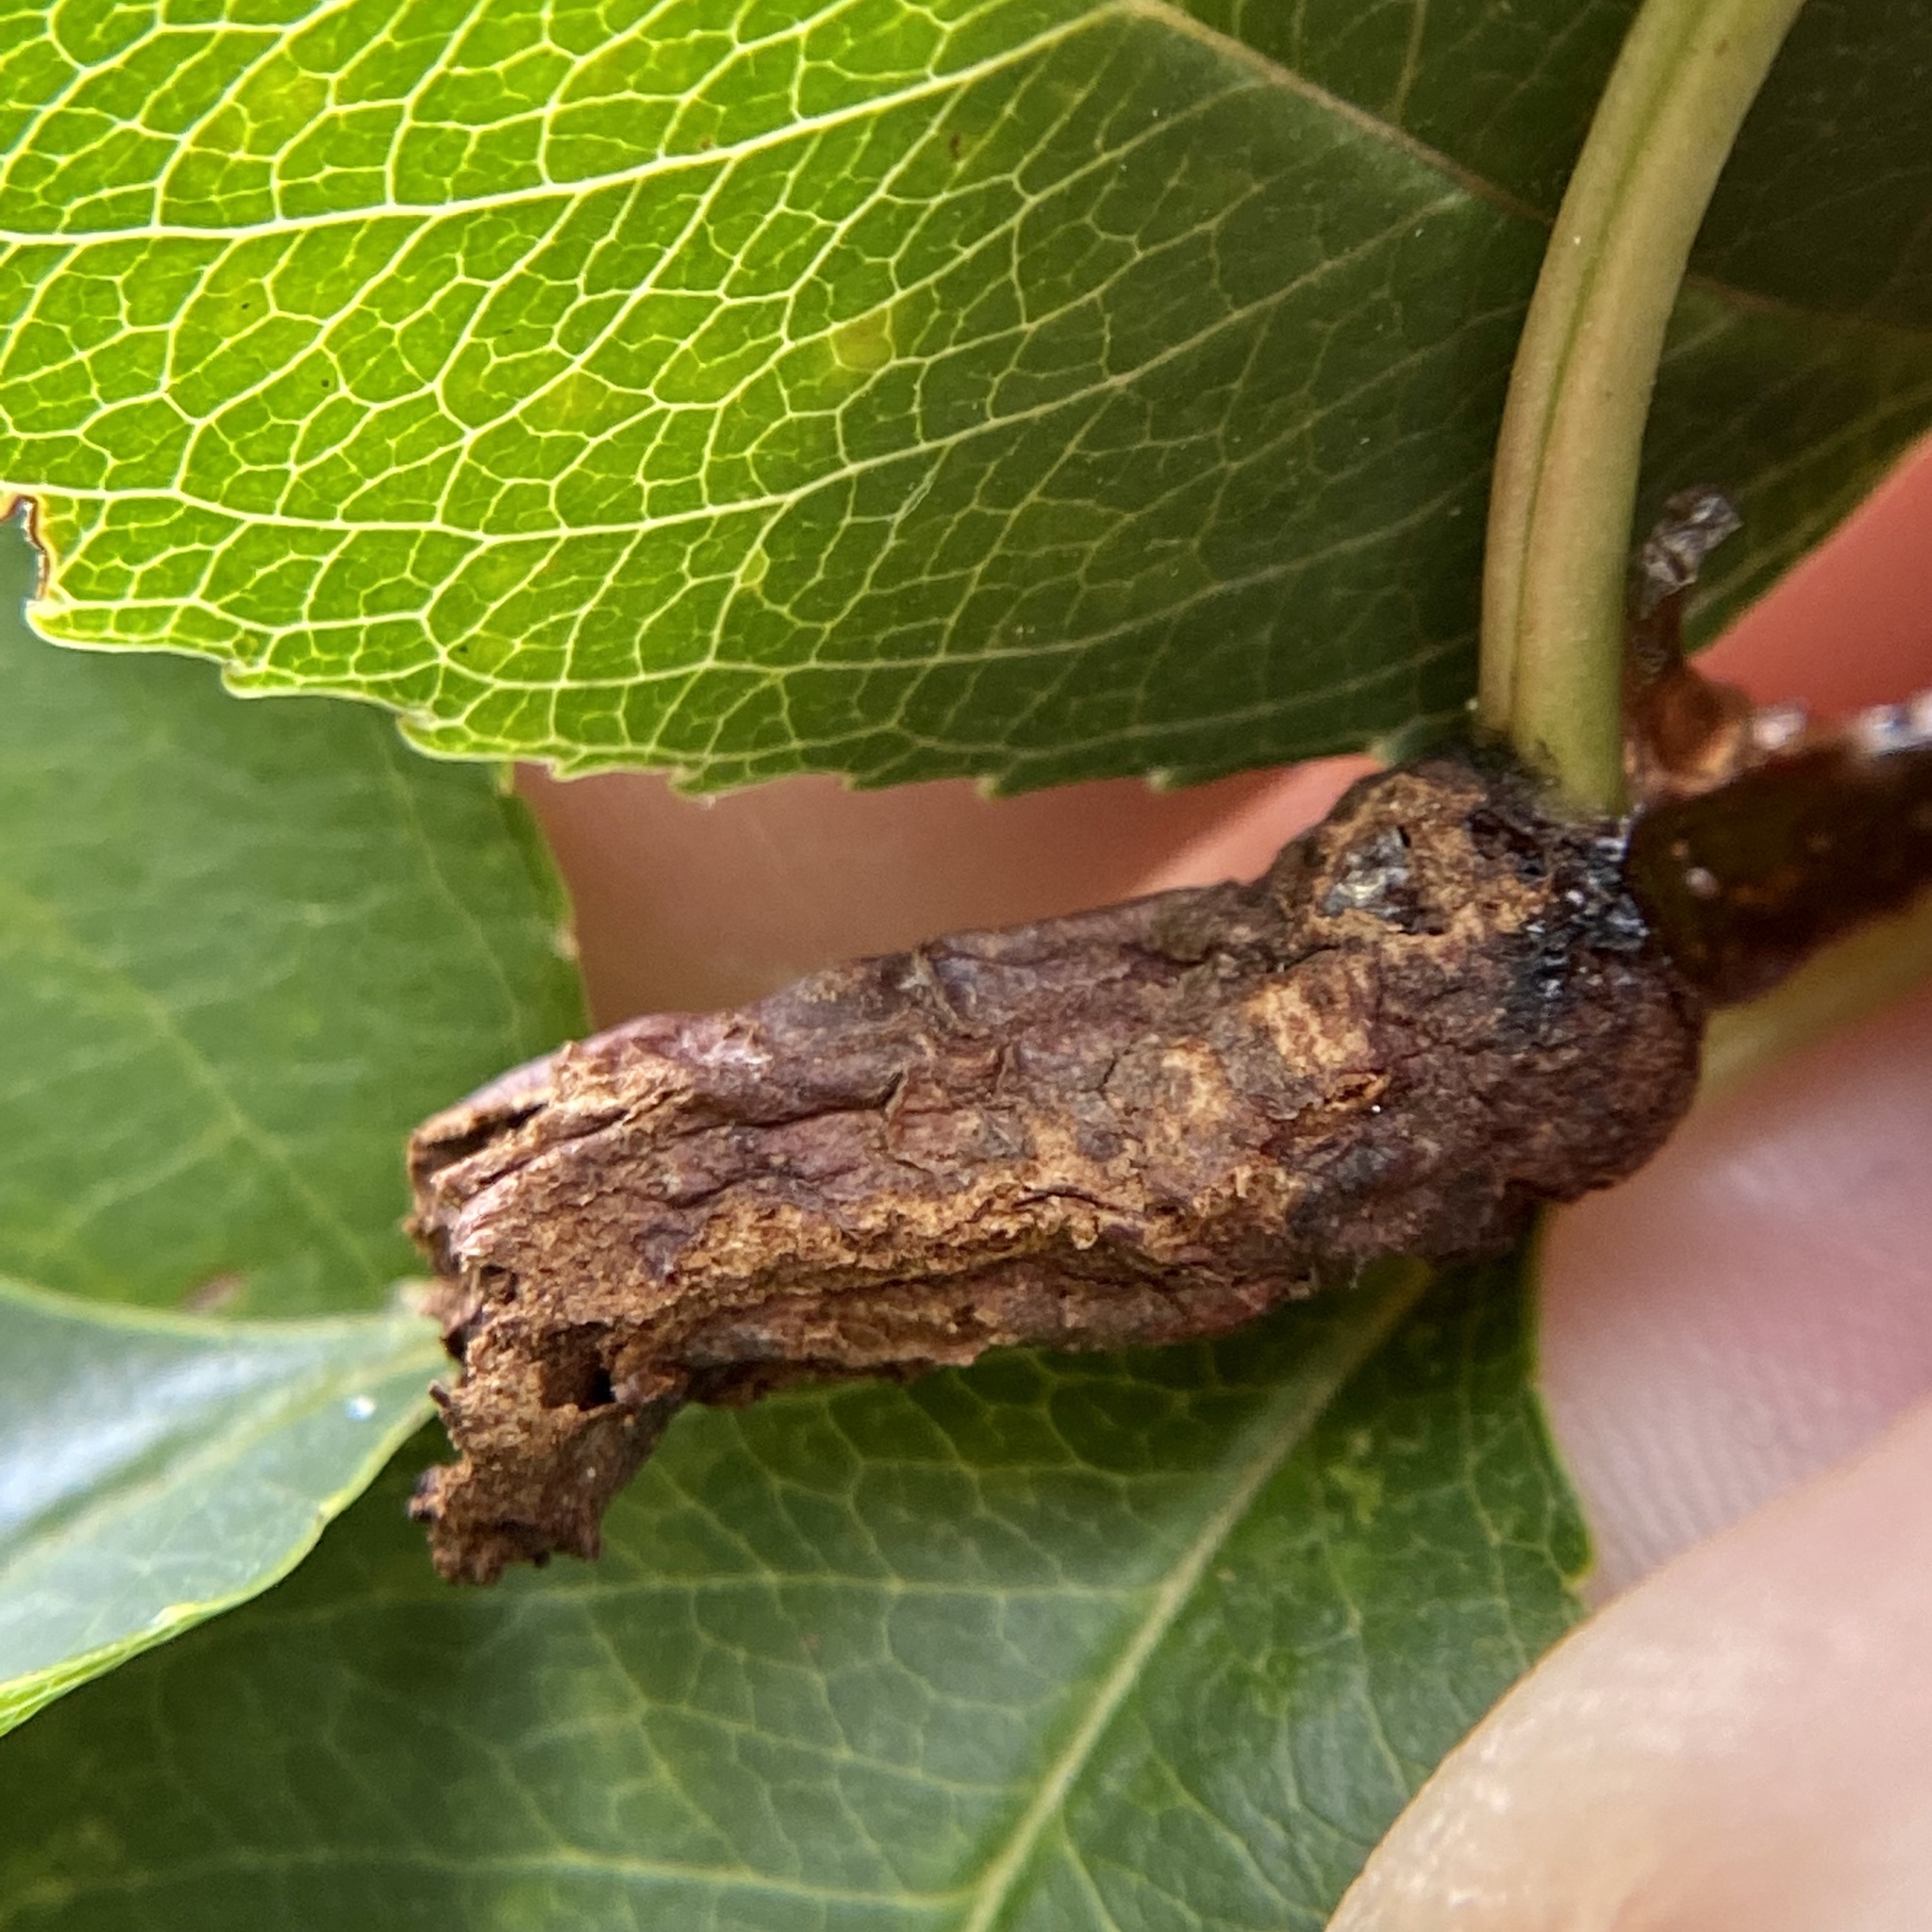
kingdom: Fungi
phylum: Ascomycota
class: Taphrinomycetes
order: Taphrinales
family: Taphrinaceae
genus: Taphrina
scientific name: Taphrina farlowii
